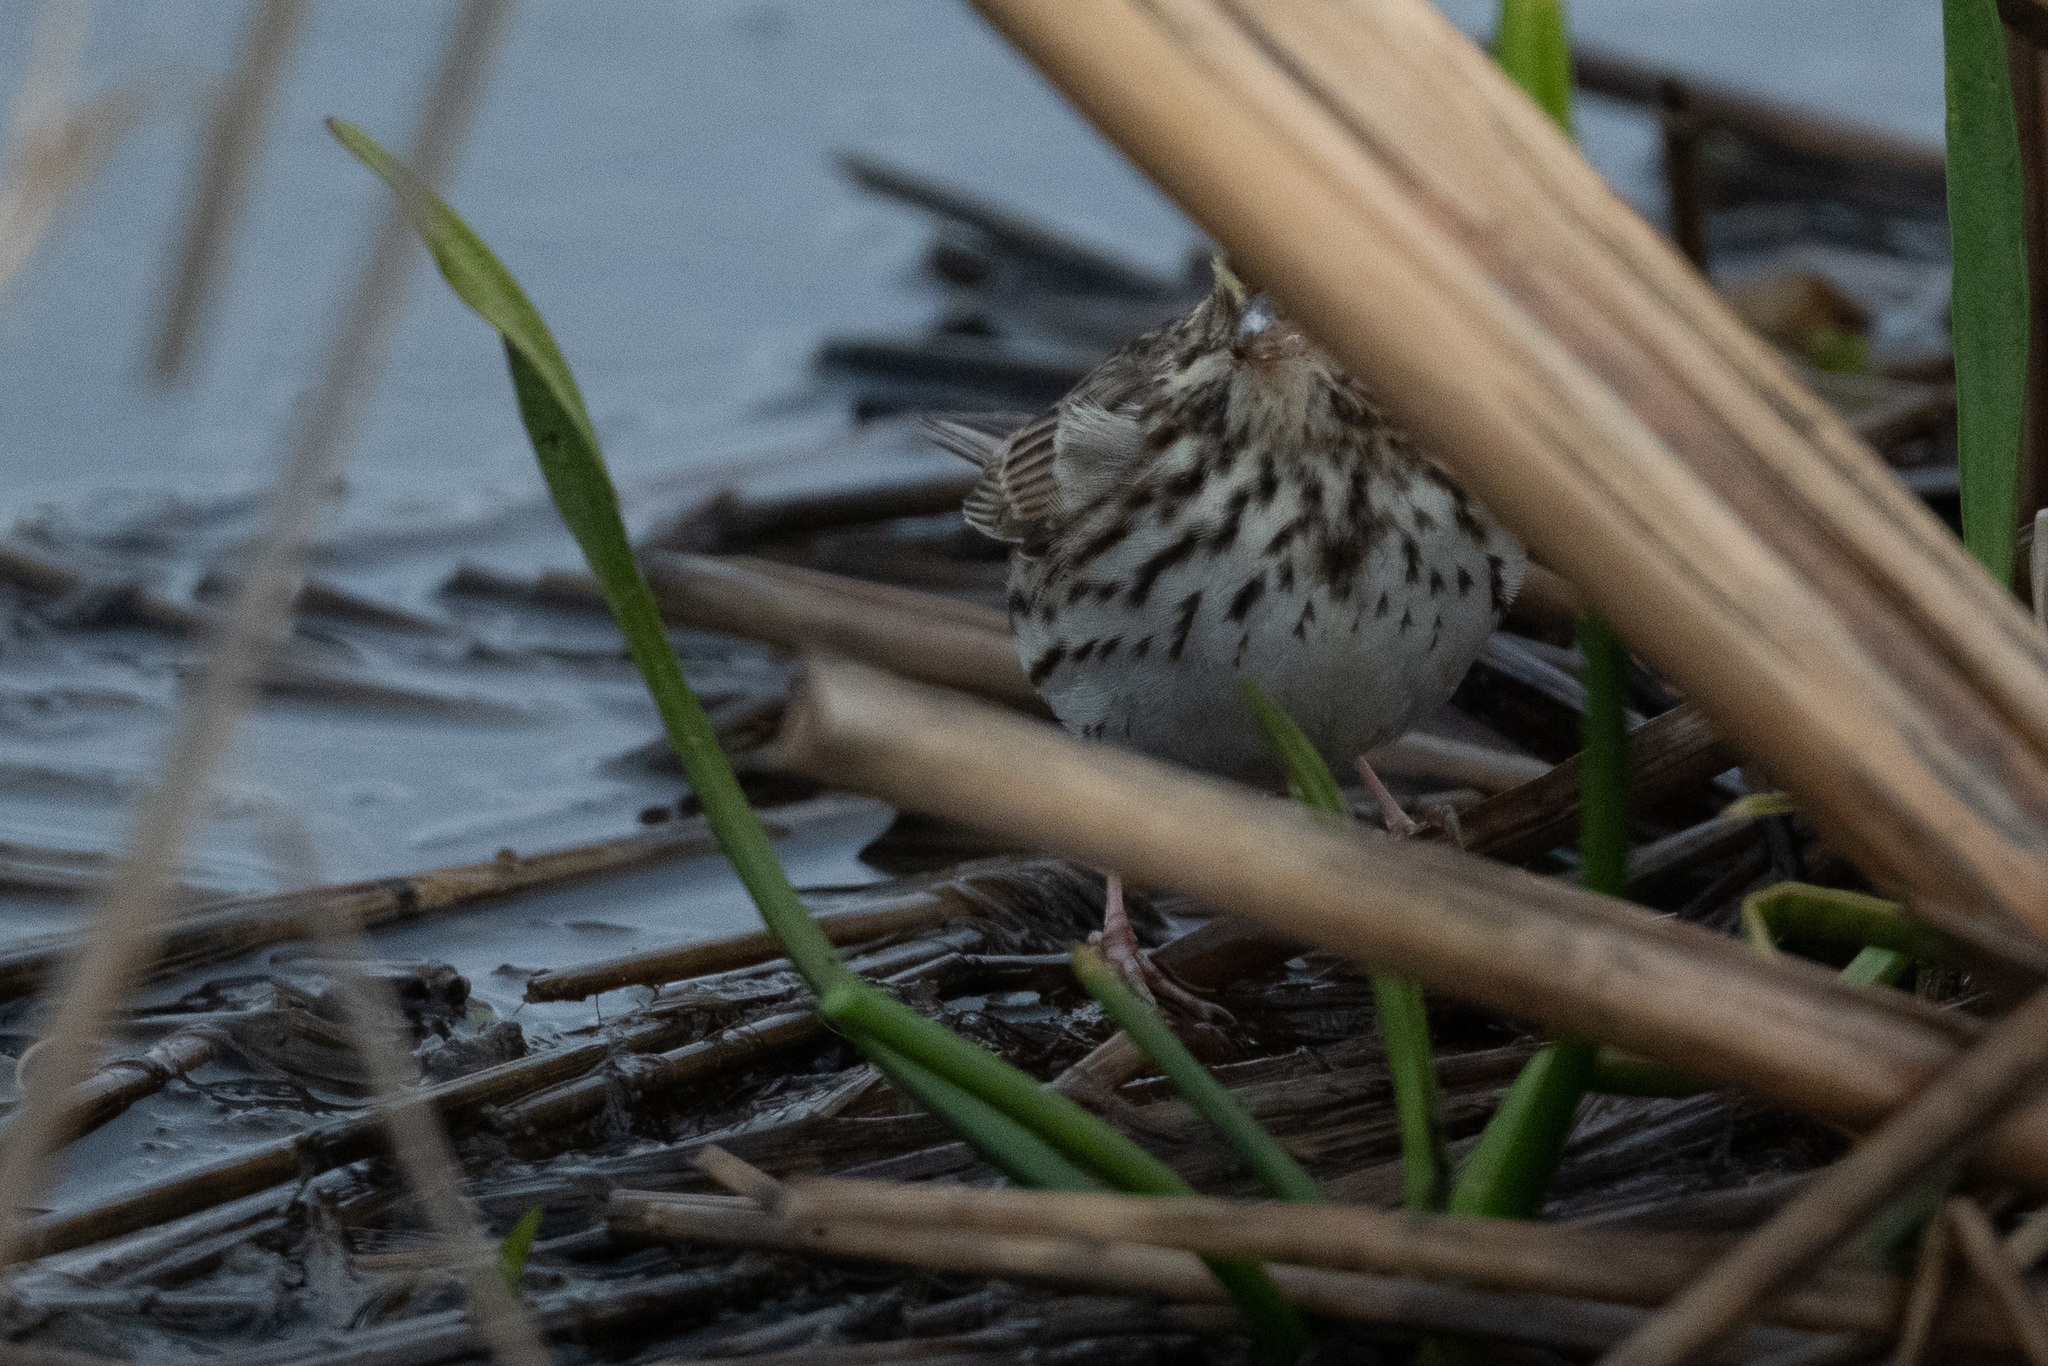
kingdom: Animalia
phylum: Chordata
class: Aves
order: Passeriformes
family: Passerellidae
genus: Passerculus
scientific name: Passerculus sandwichensis
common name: Savannah sparrow
